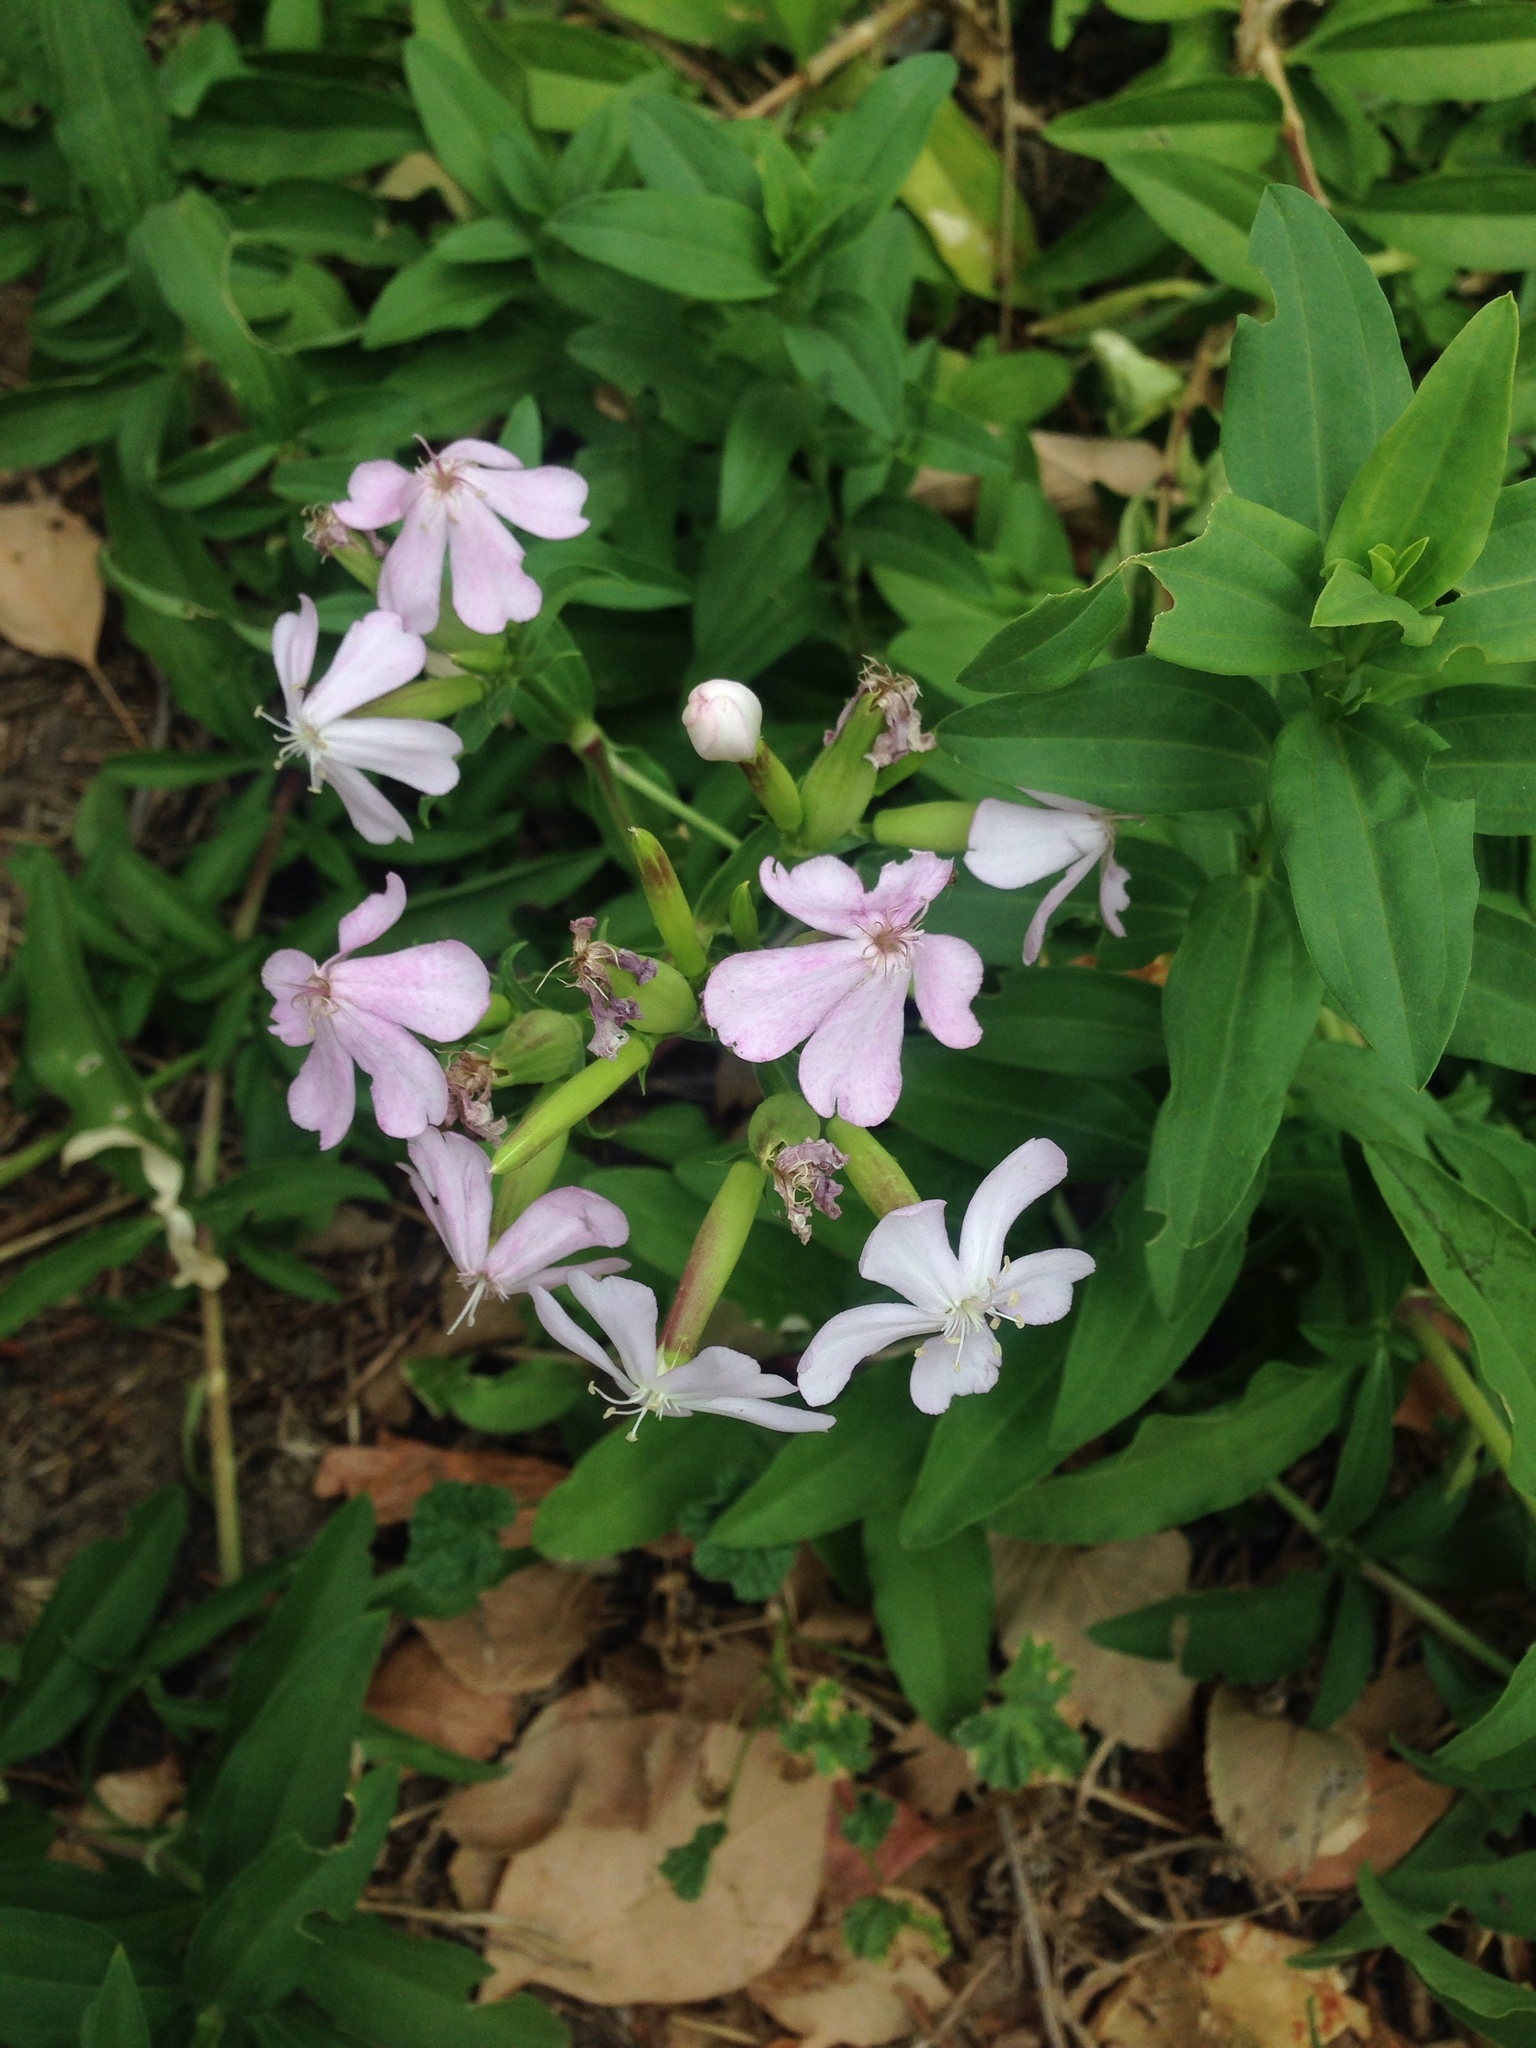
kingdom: Plantae
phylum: Tracheophyta
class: Magnoliopsida
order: Caryophyllales
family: Caryophyllaceae
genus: Saponaria
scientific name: Saponaria officinalis
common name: Soapwort
